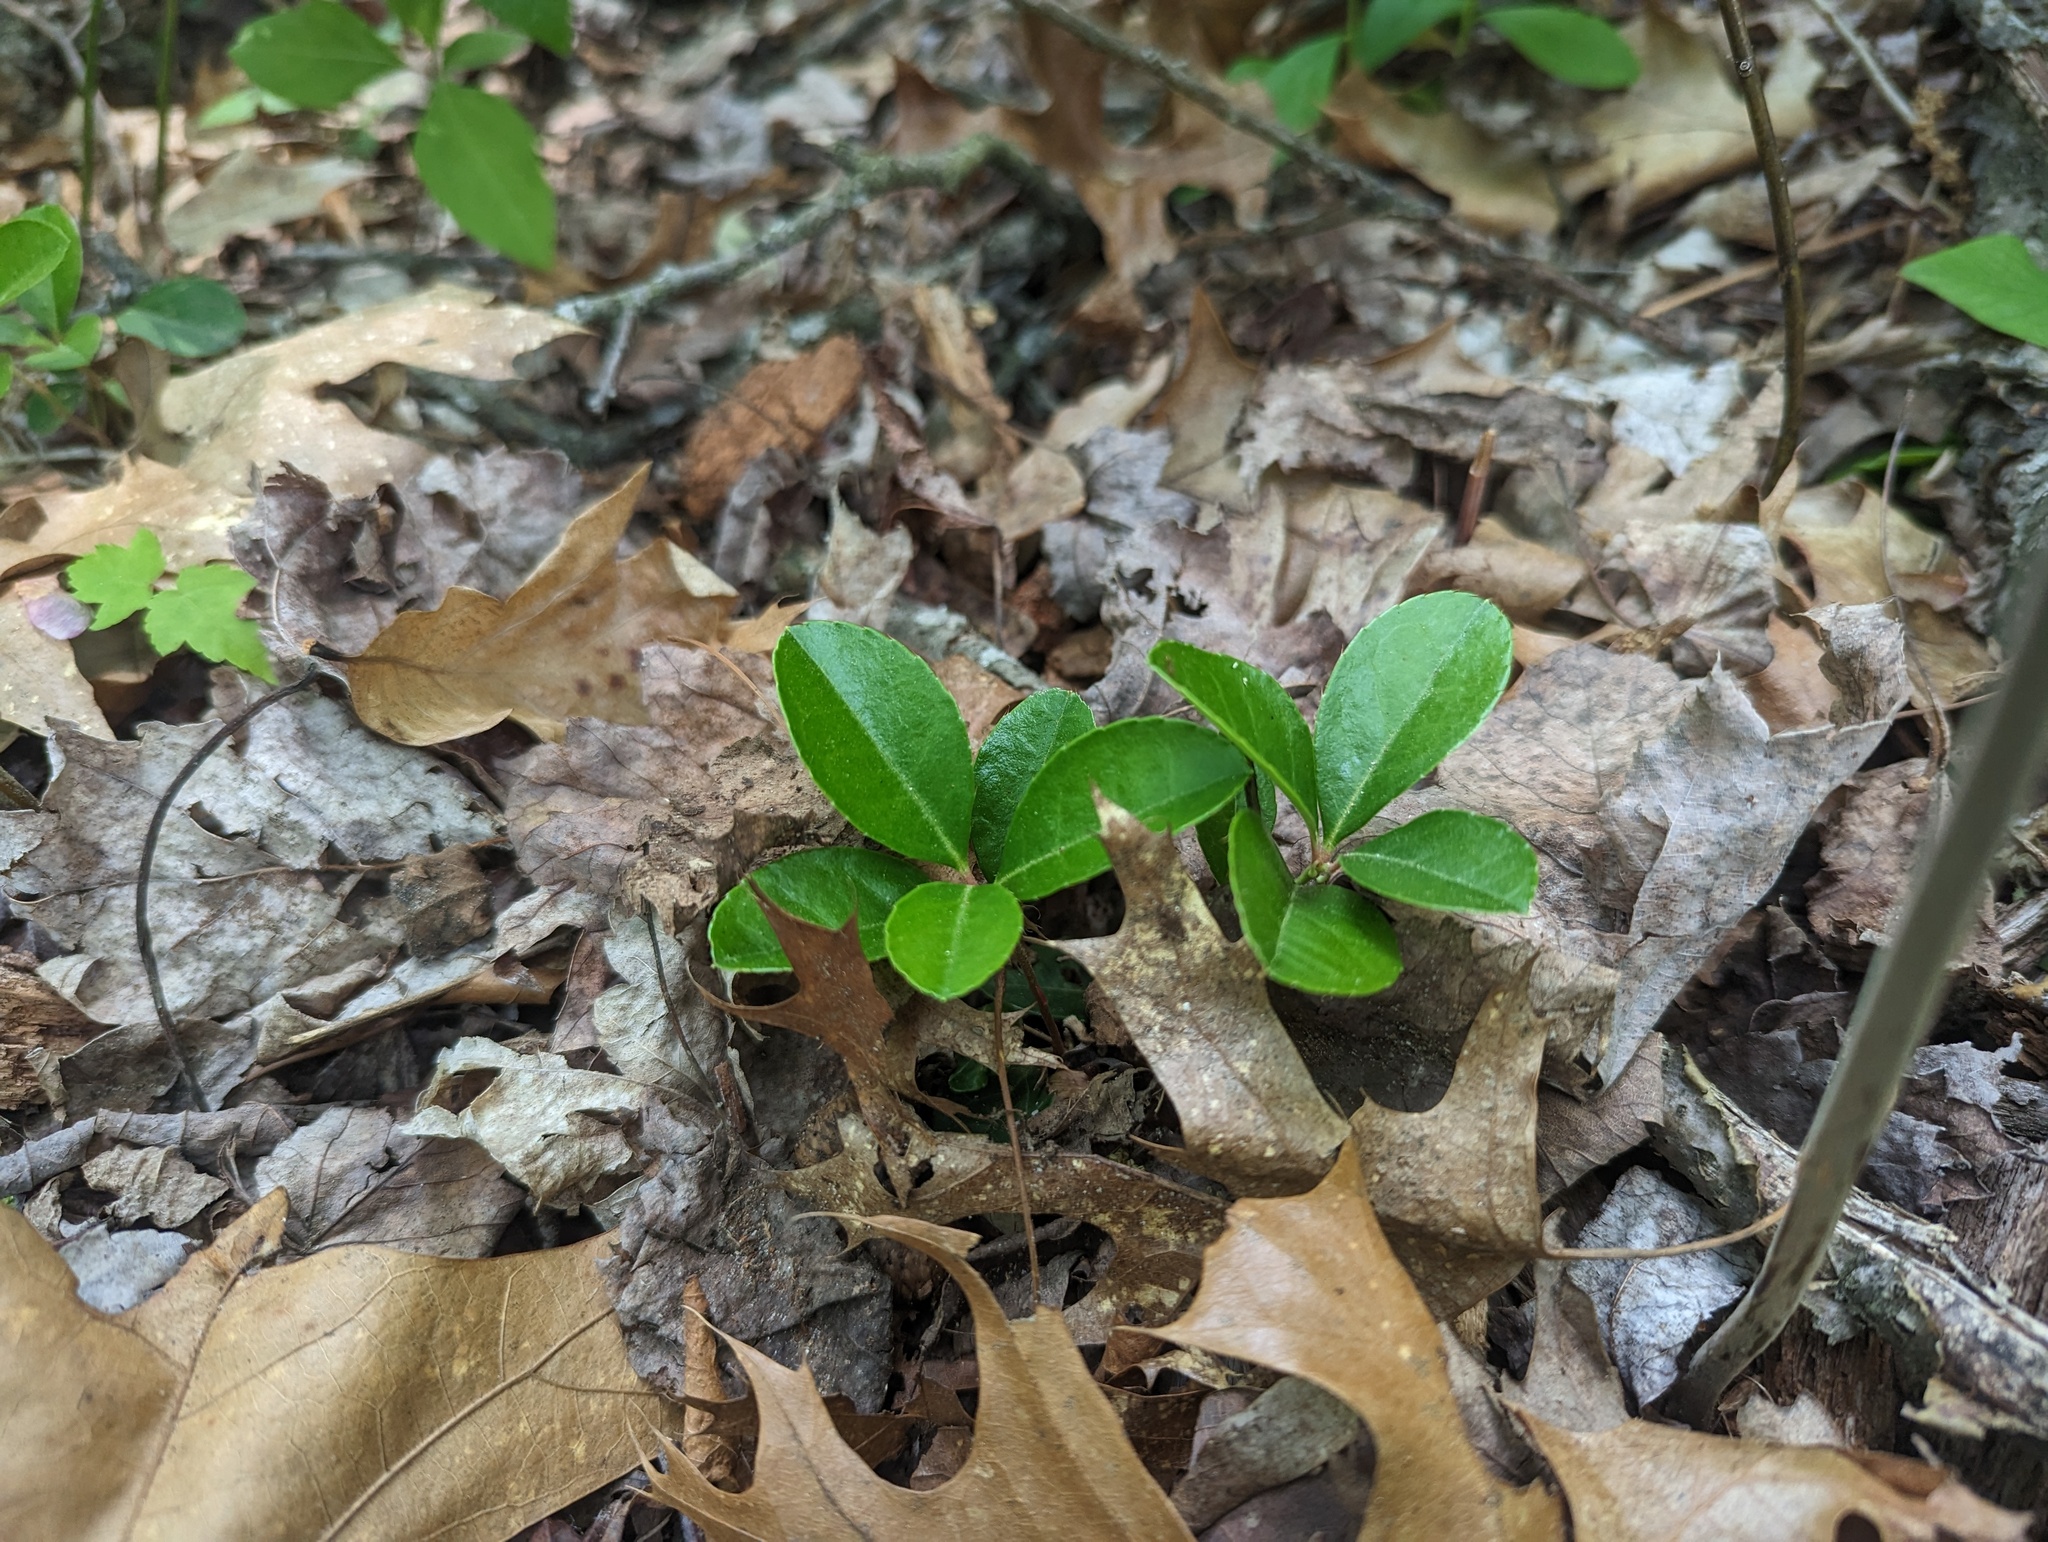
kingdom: Plantae
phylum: Tracheophyta
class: Magnoliopsida
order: Ericales
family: Ericaceae
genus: Gaultheria
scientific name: Gaultheria procumbens
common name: Checkerberry
